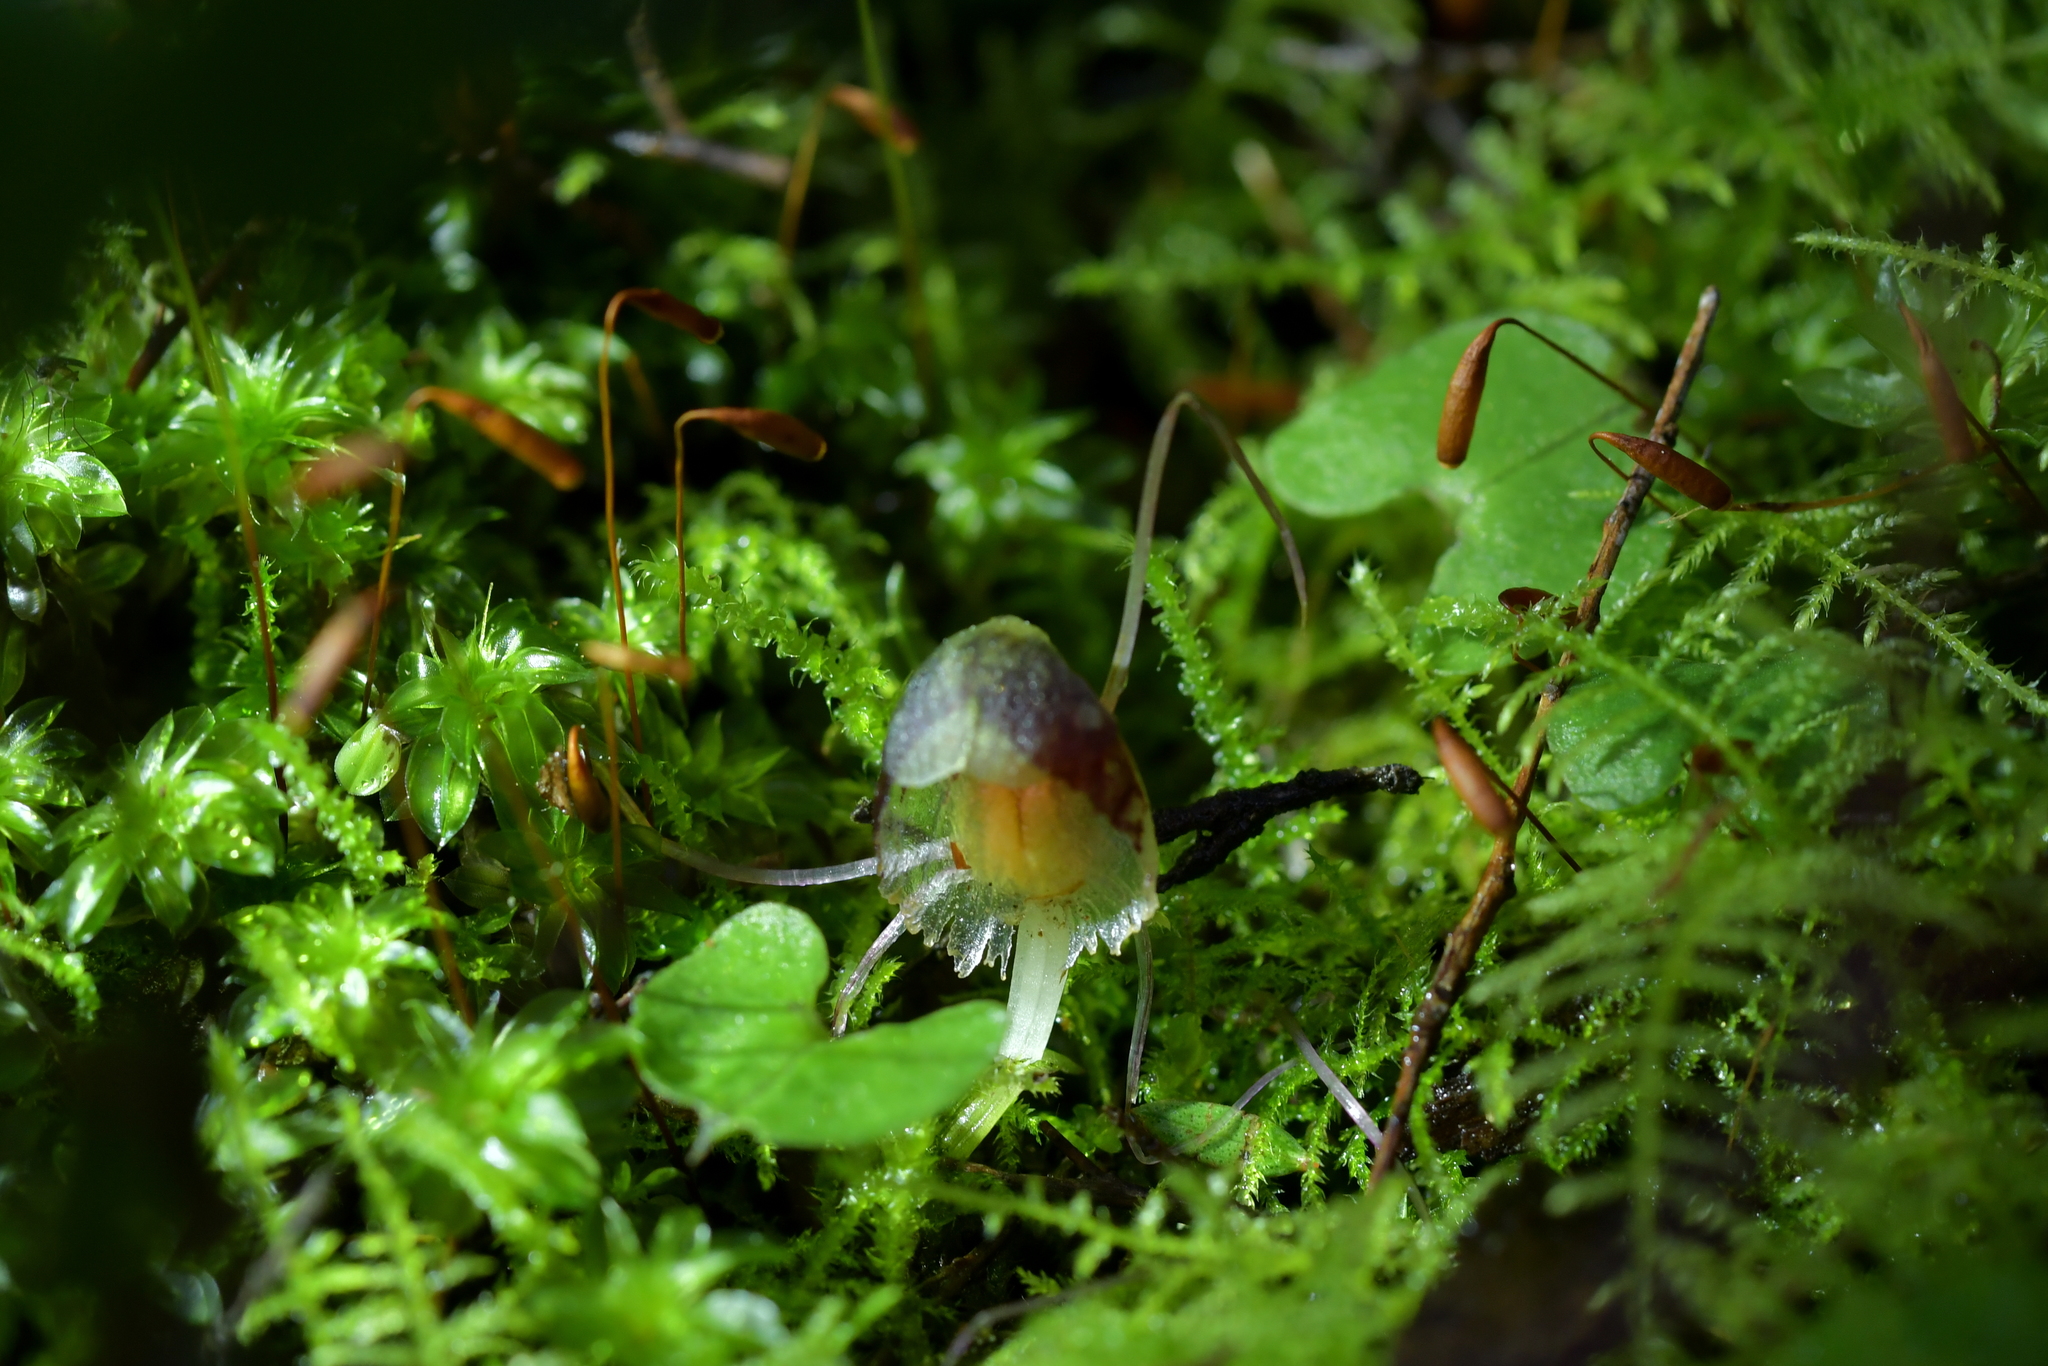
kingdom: Plantae
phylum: Tracheophyta
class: Liliopsida
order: Asparagales
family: Orchidaceae
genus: Corybas
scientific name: Corybas vitreus
